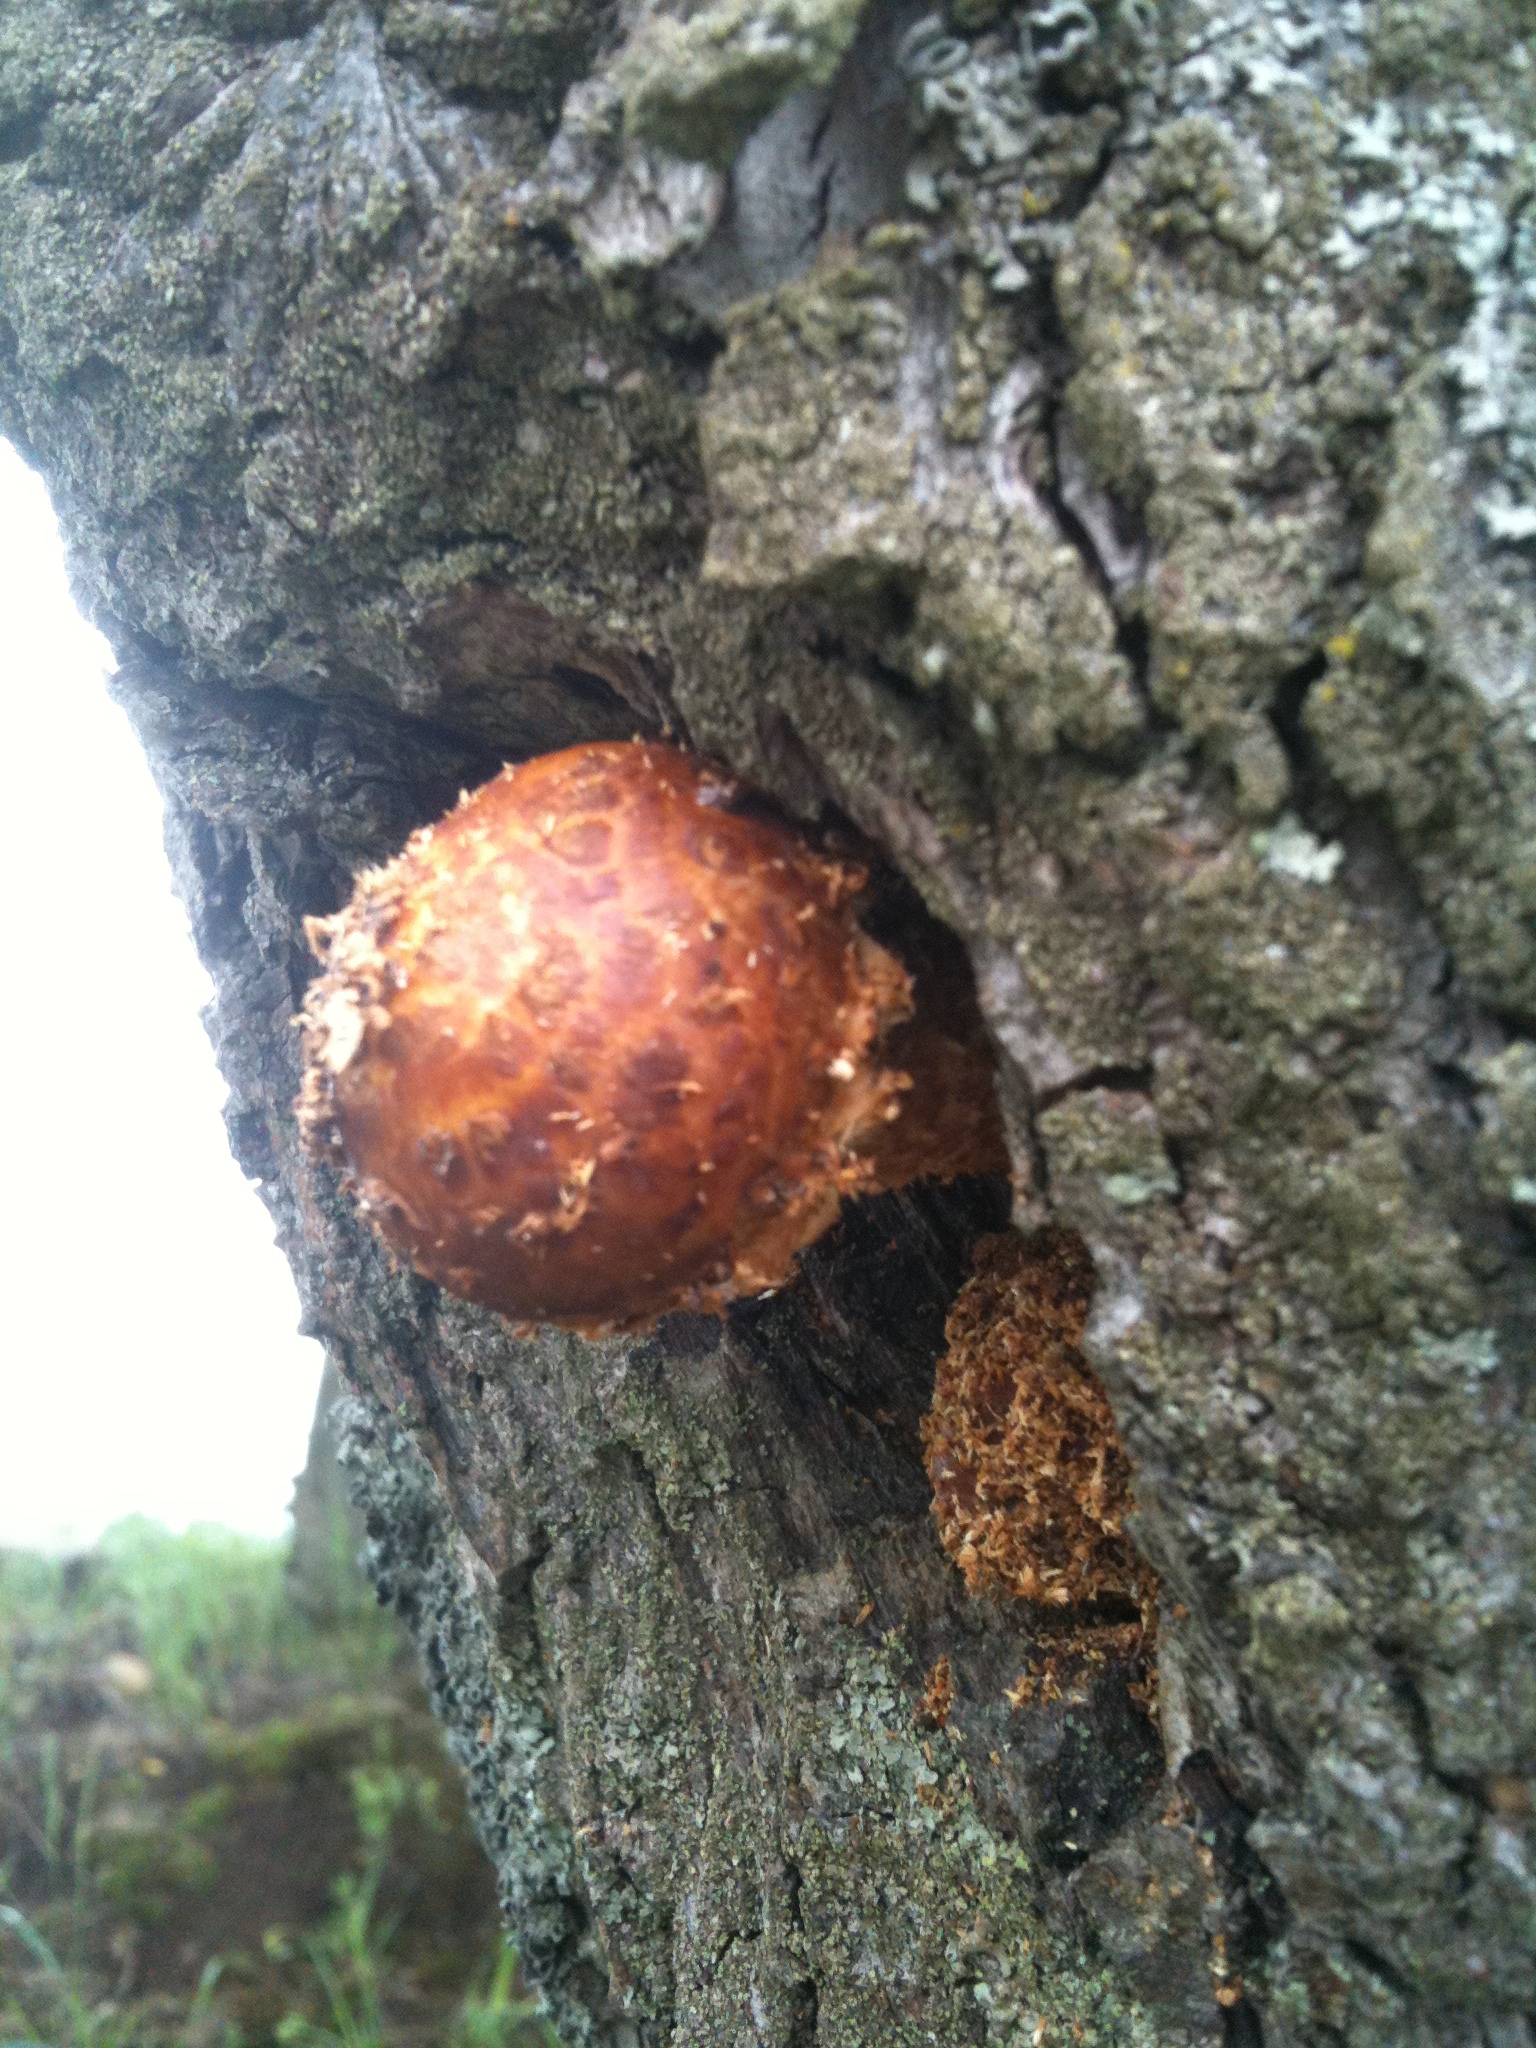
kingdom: Fungi
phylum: Basidiomycota
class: Agaricomycetes
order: Agaricales
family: Strophariaceae
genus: Pholiota
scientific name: Pholiota aurivella
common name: Golden scalycap
